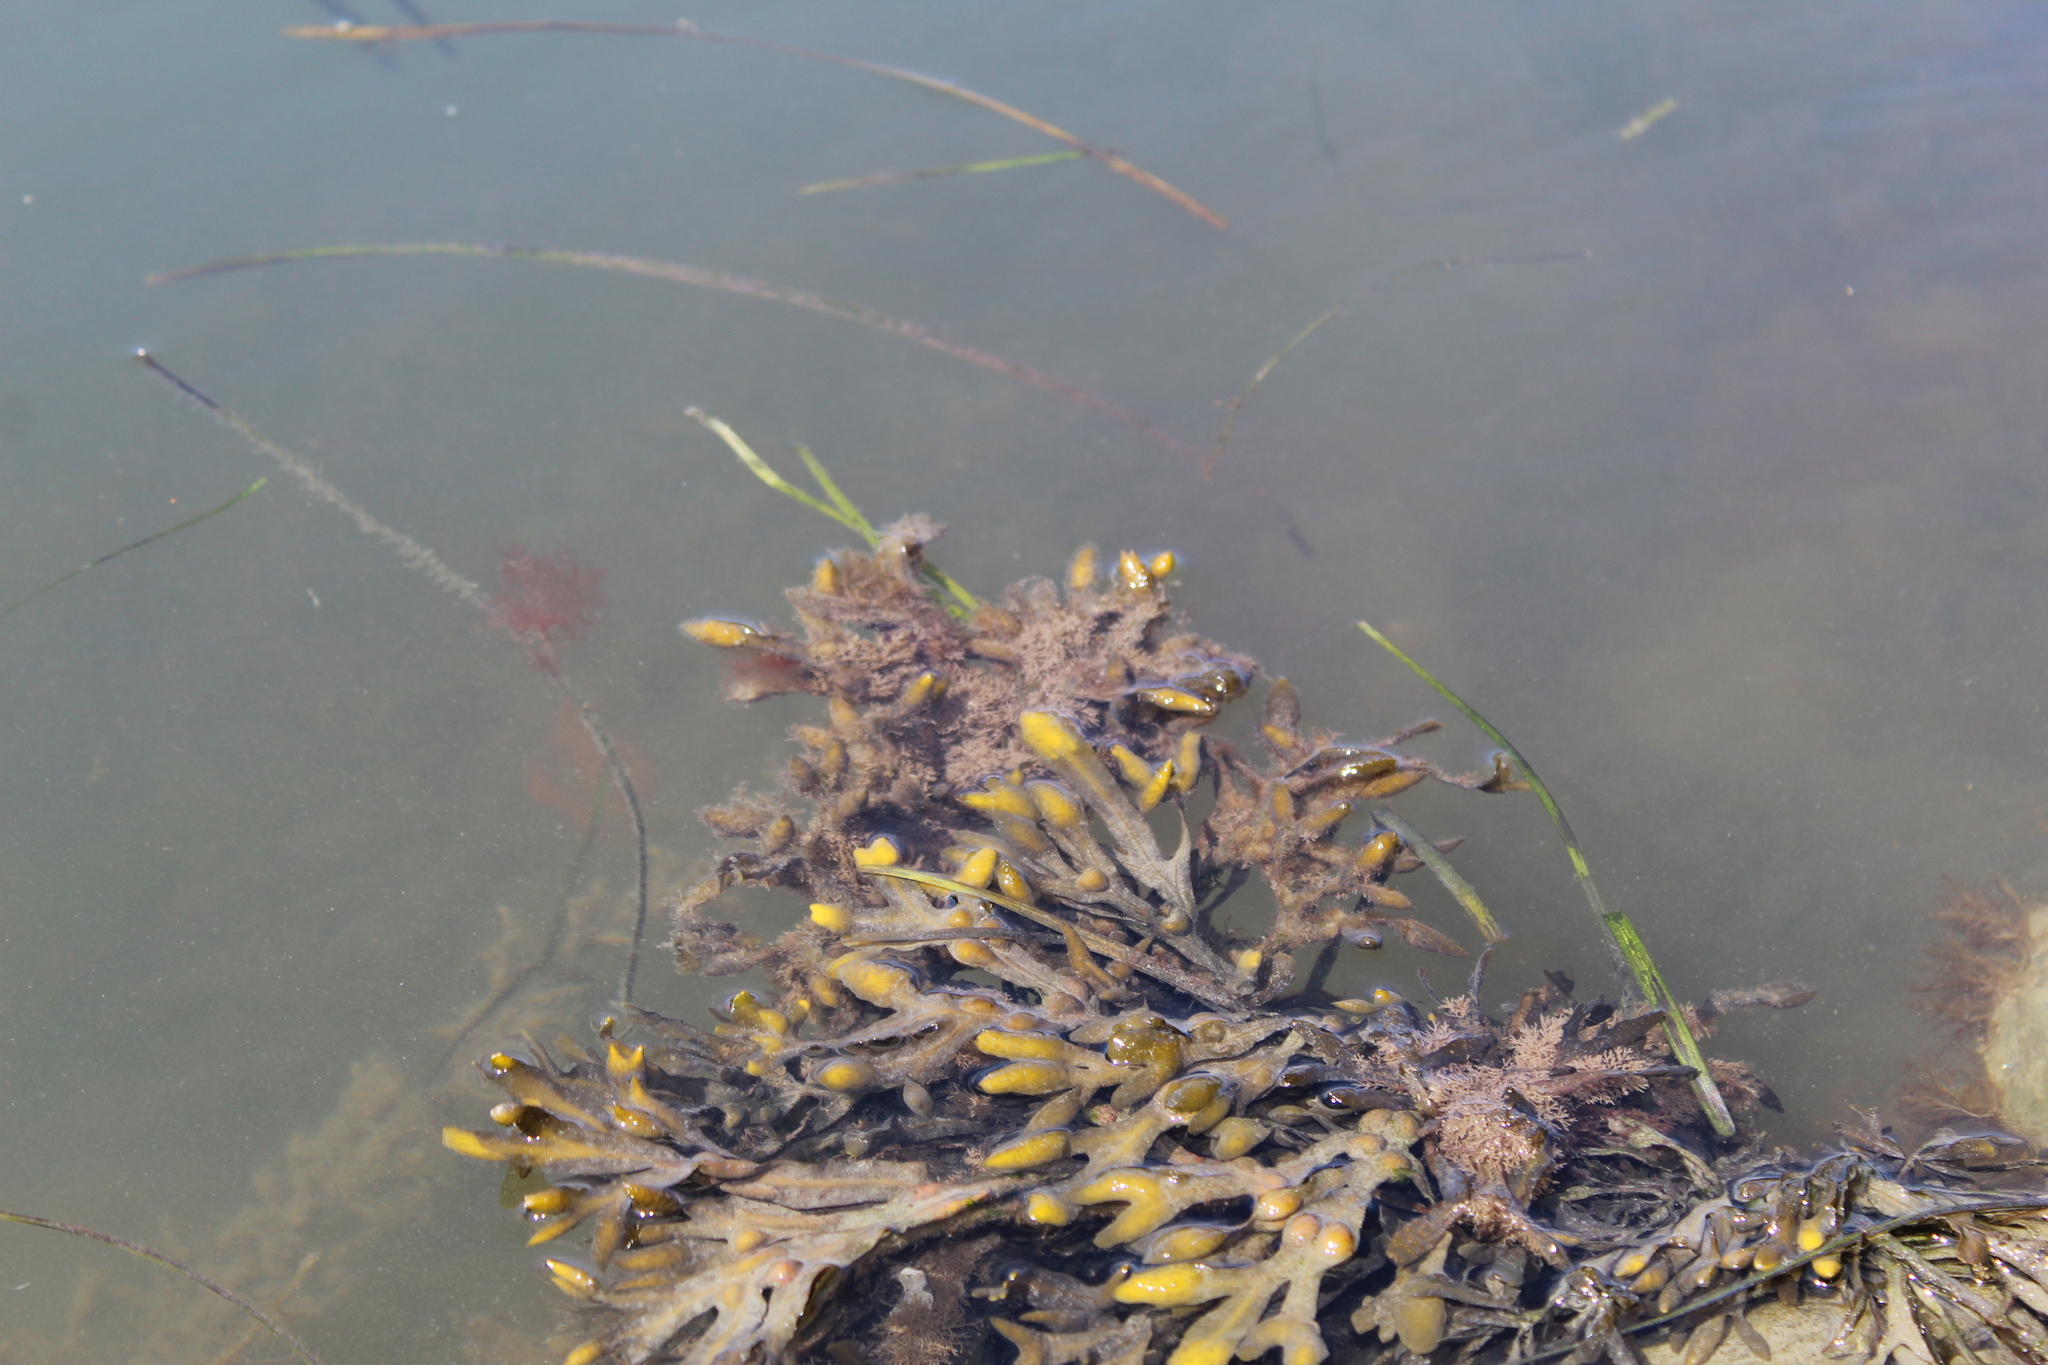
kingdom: Chromista
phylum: Ochrophyta
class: Phaeophyceae
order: Fucales
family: Fucaceae
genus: Fucus
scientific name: Fucus vesiculosus
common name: Bladder wrack
